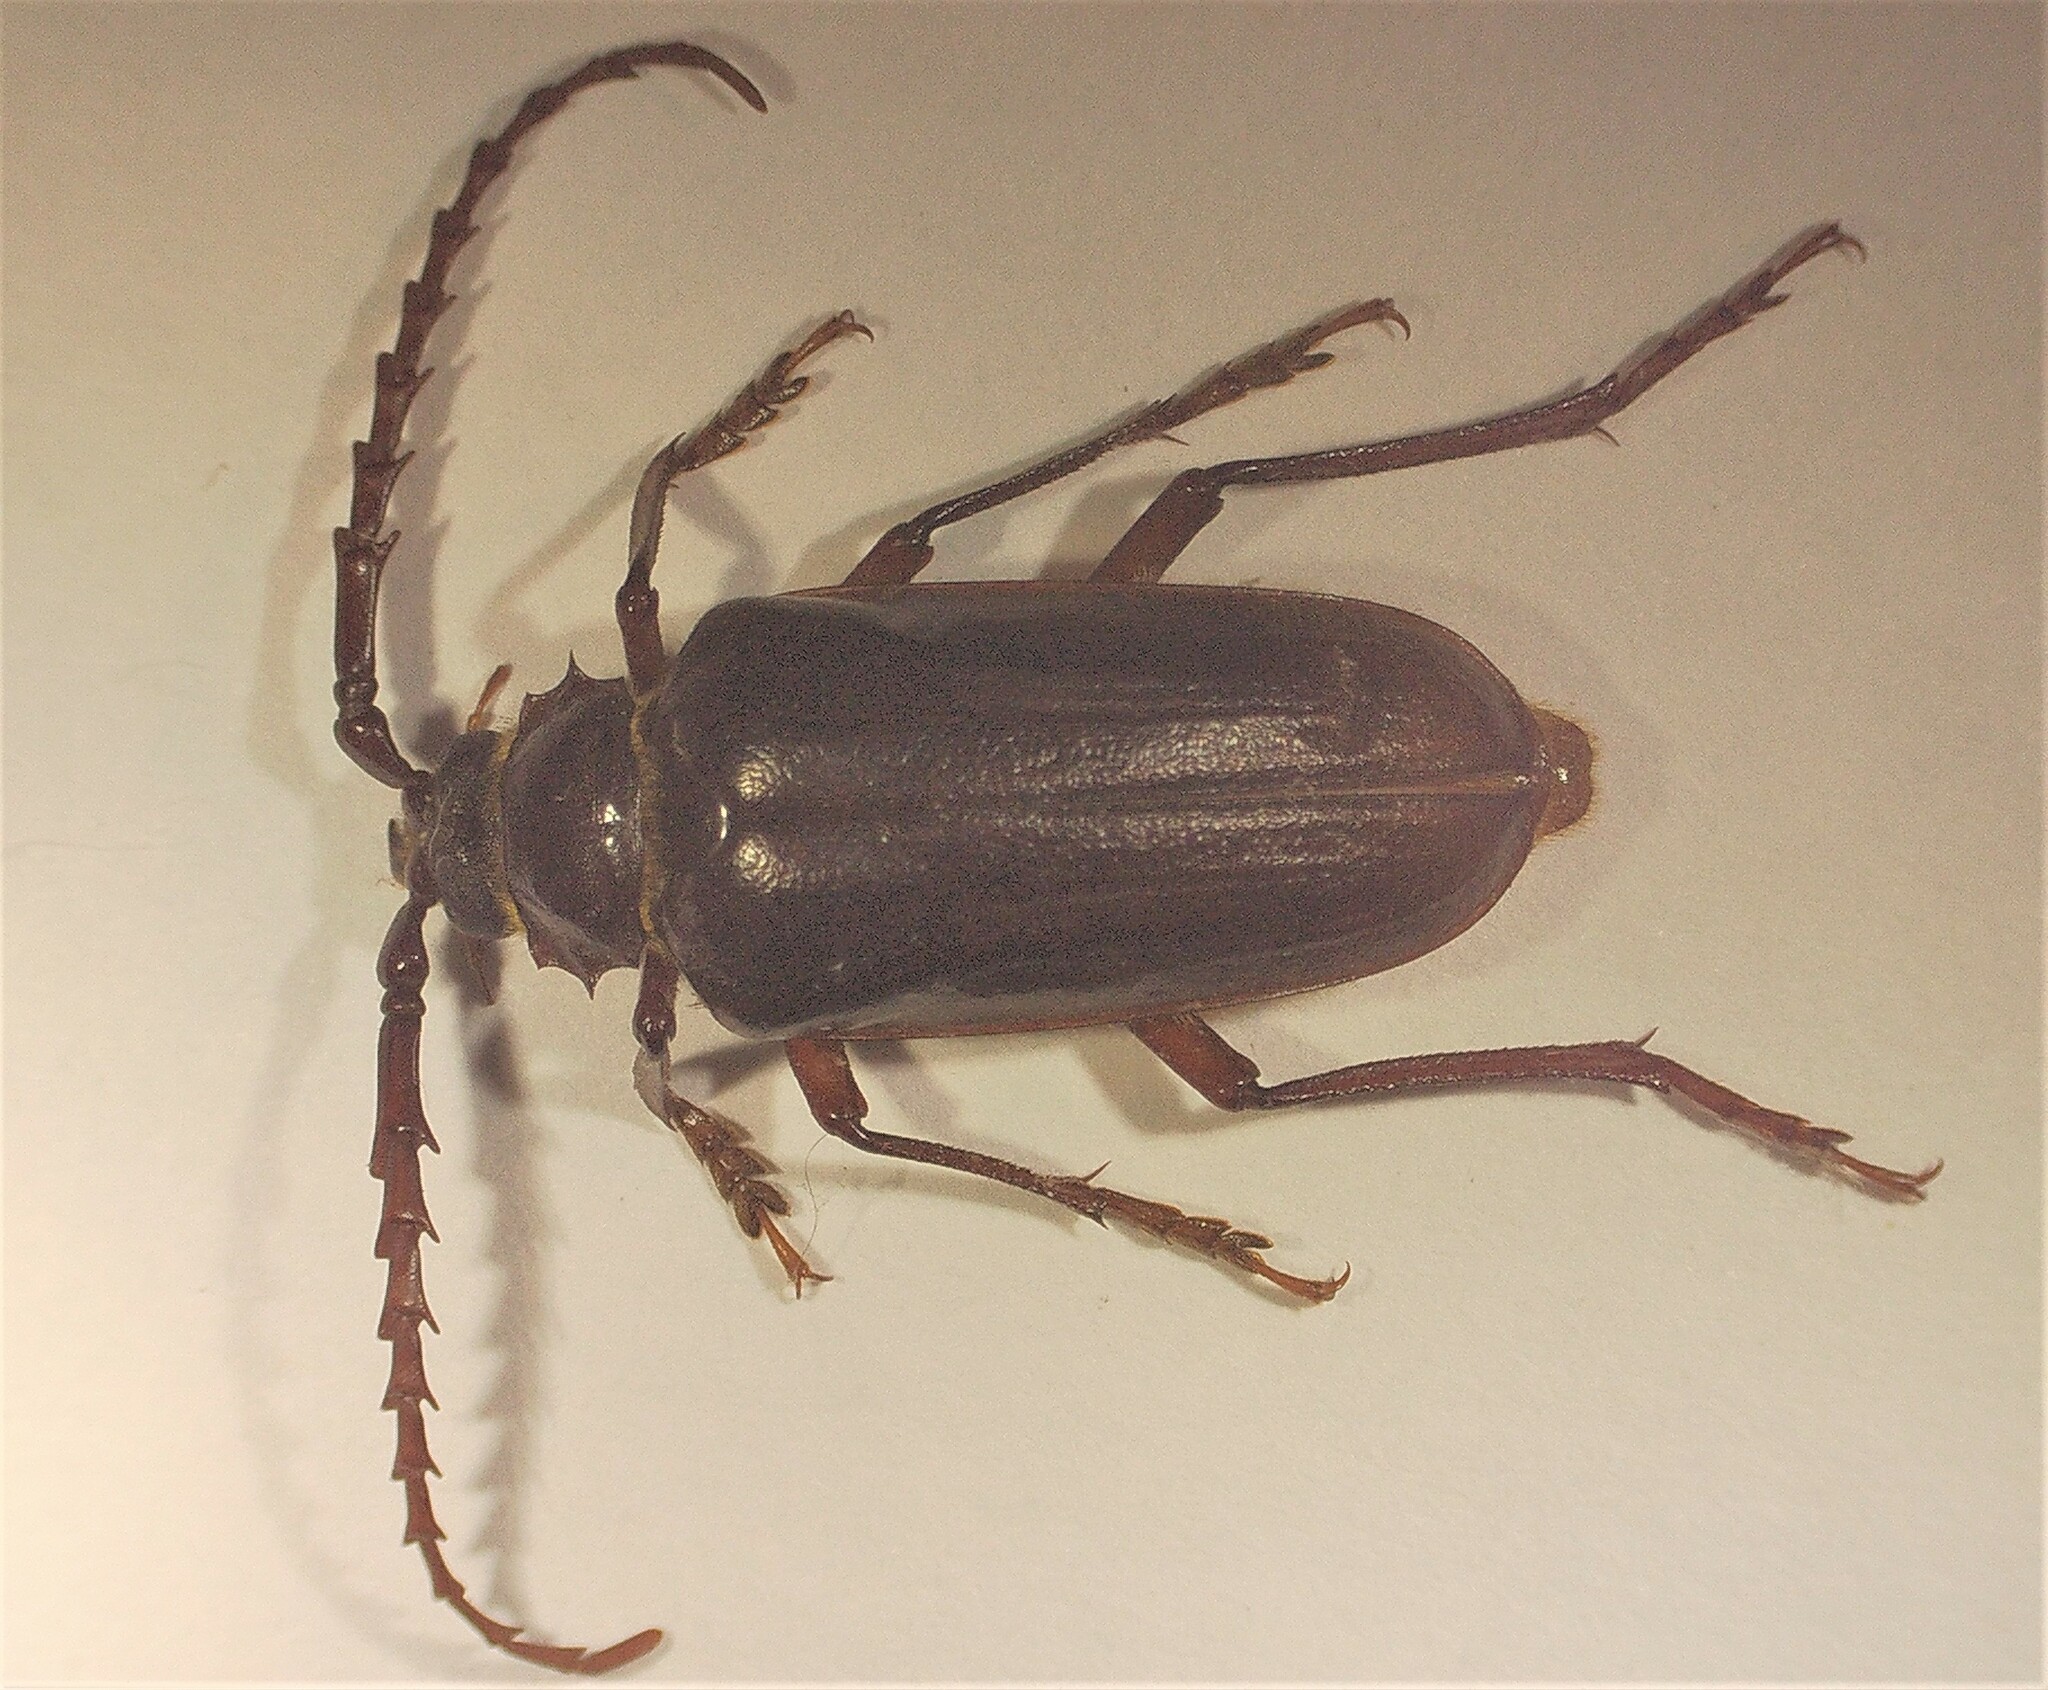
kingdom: Animalia
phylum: Arthropoda
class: Insecta
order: Coleoptera
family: Cerambycidae
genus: Prionus
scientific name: Prionus californicus
